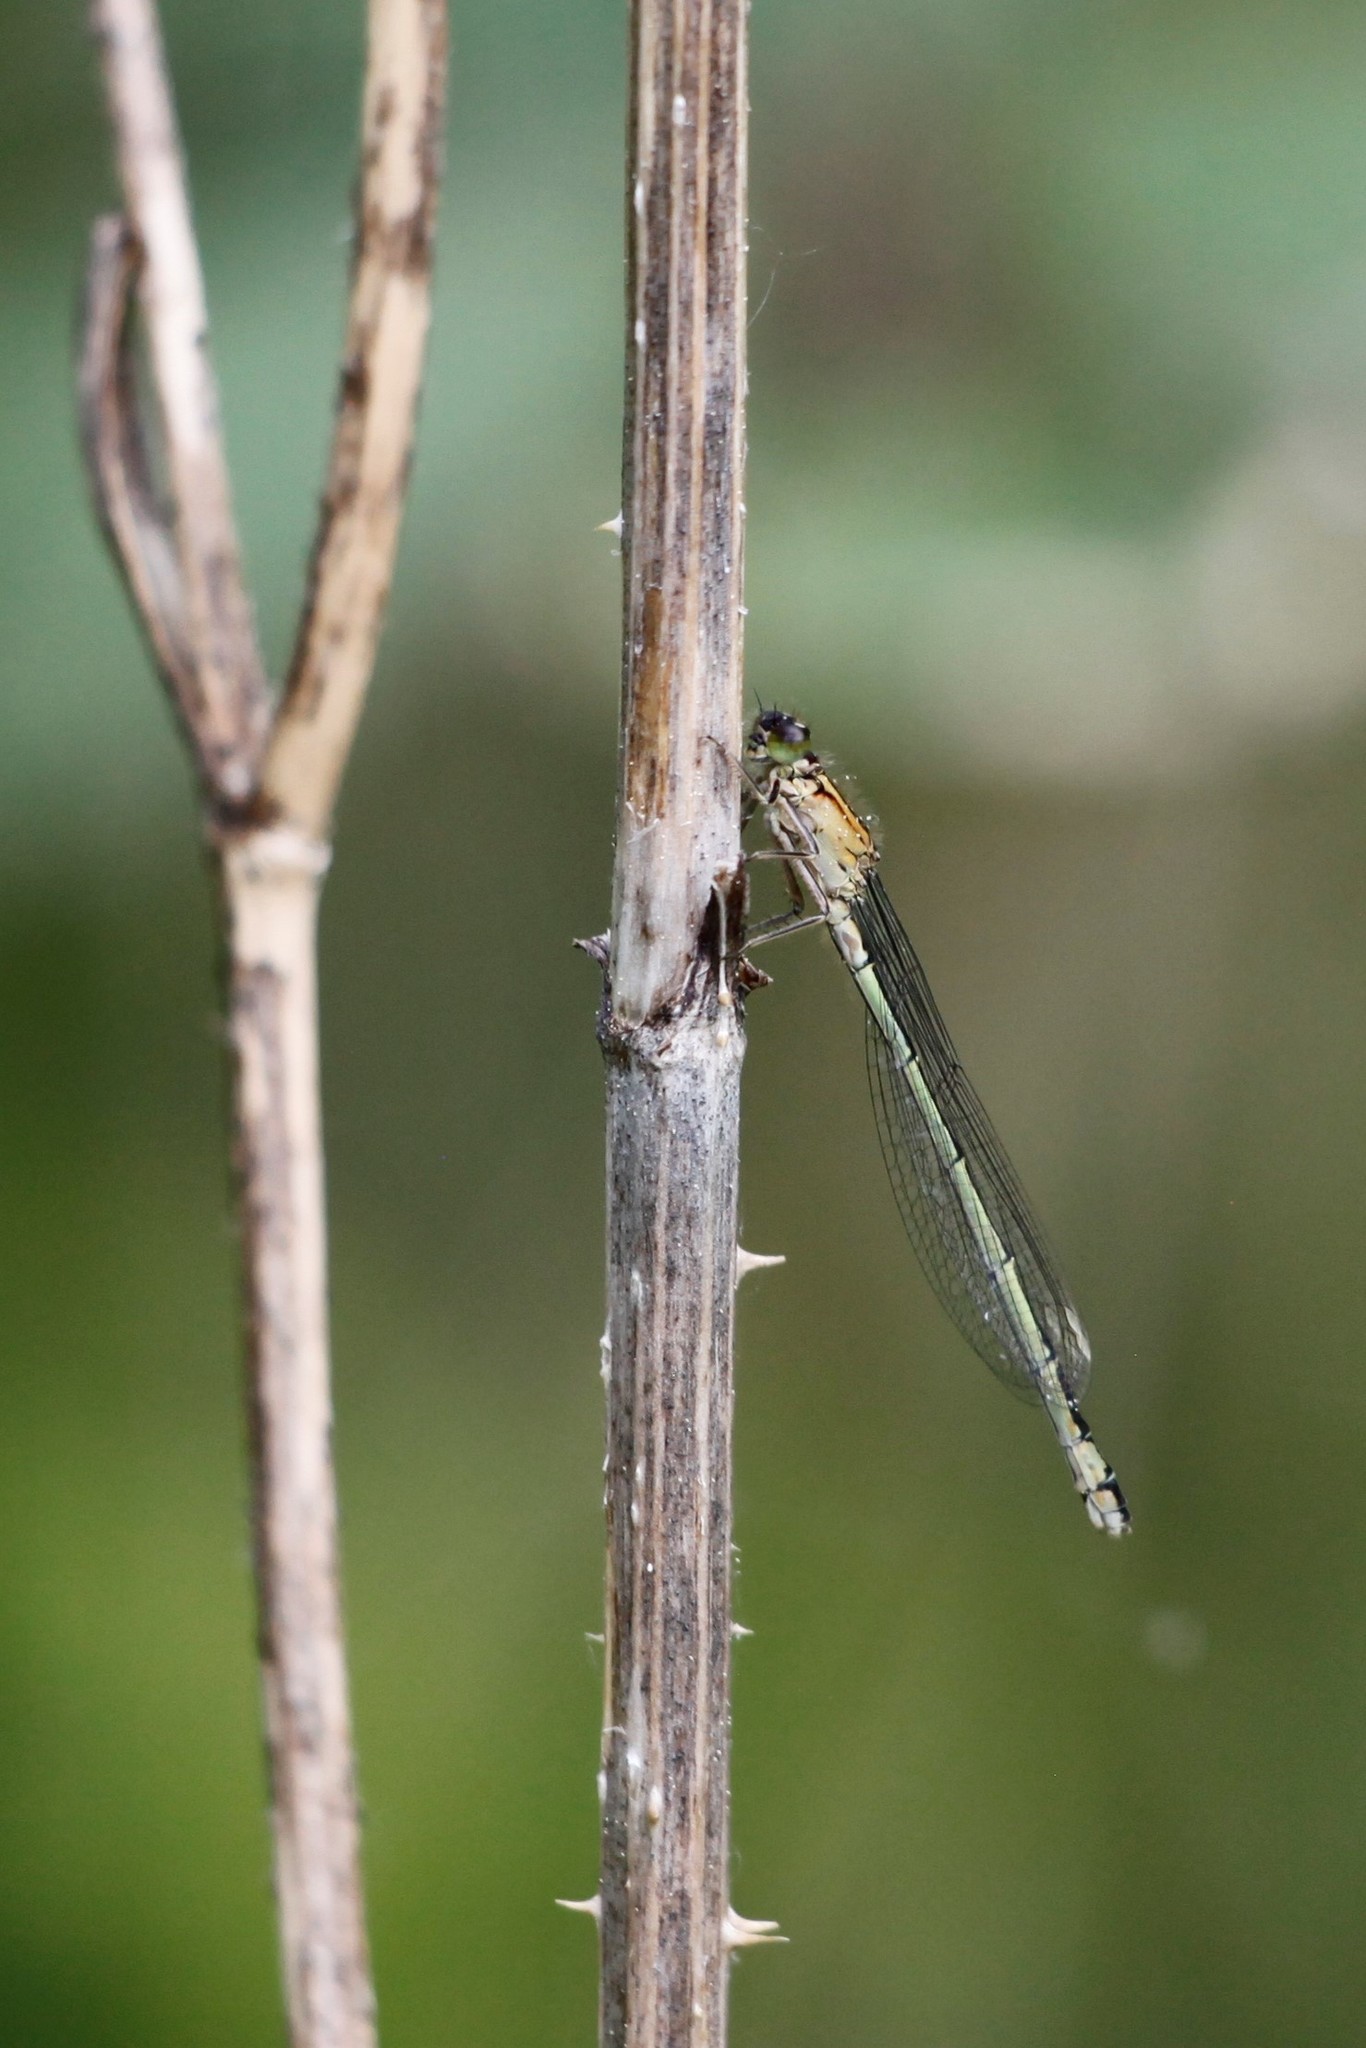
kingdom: Animalia
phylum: Arthropoda
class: Insecta
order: Odonata
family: Coenagrionidae
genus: Ischnura
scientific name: Ischnura elegans
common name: Blue-tailed damselfly
